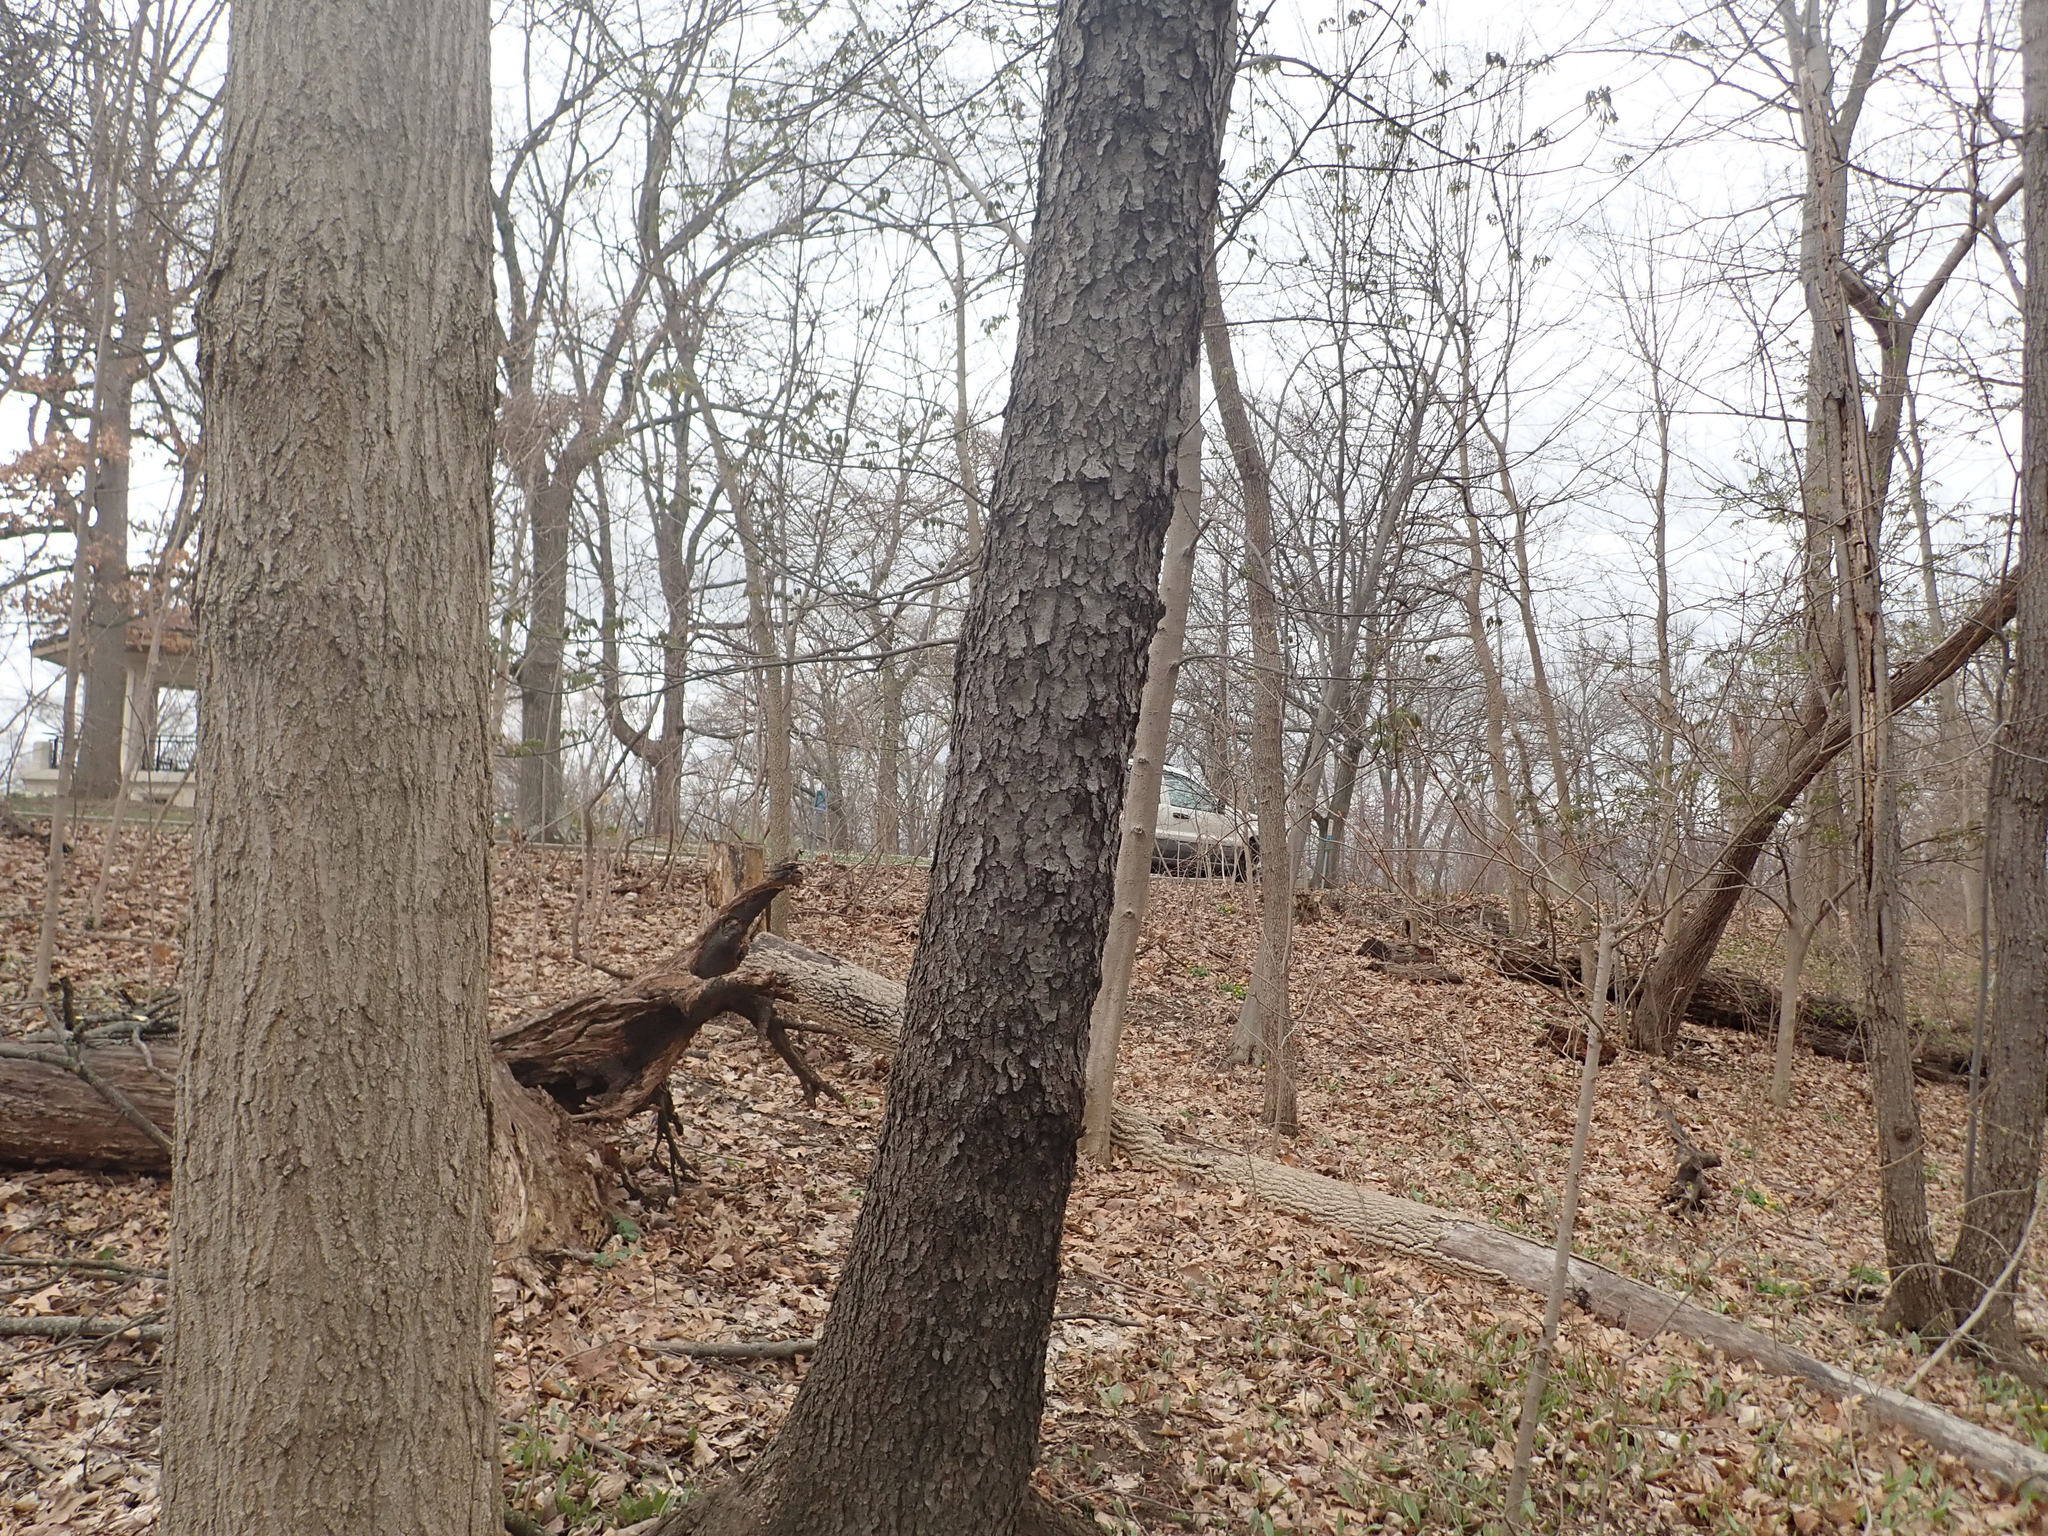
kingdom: Plantae
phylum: Tracheophyta
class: Magnoliopsida
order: Rosales
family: Rosaceae
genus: Prunus
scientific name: Prunus serotina
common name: Black cherry
